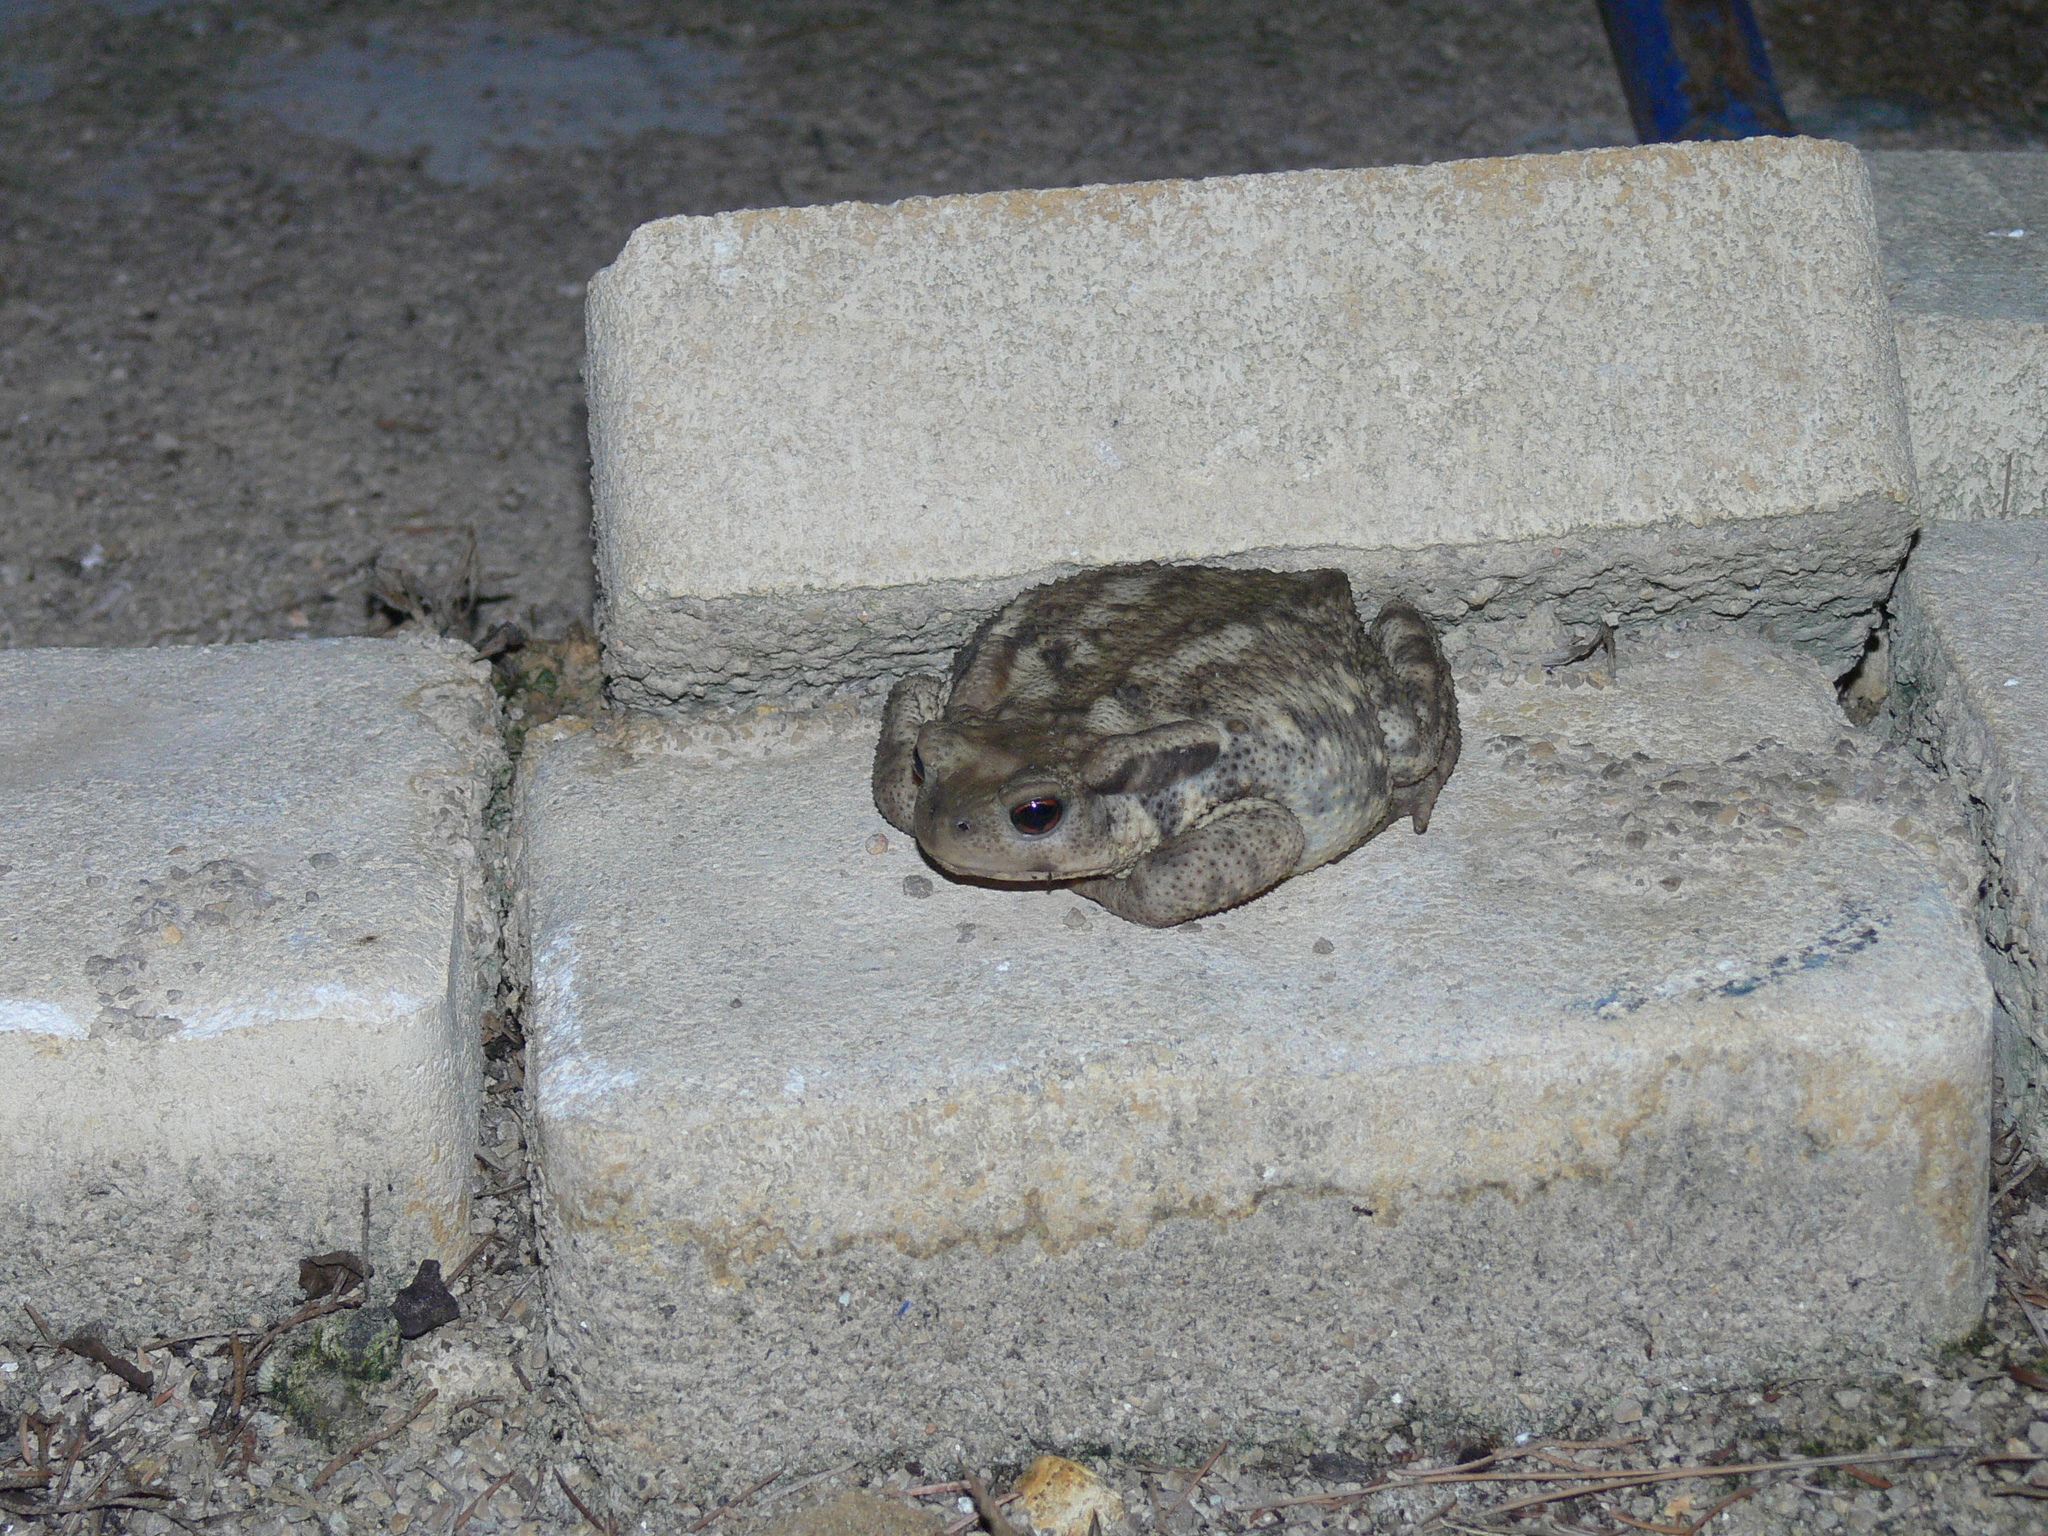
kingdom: Animalia
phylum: Chordata
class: Amphibia
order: Anura
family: Bufonidae
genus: Bufo
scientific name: Bufo spinosus
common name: Western common toad
